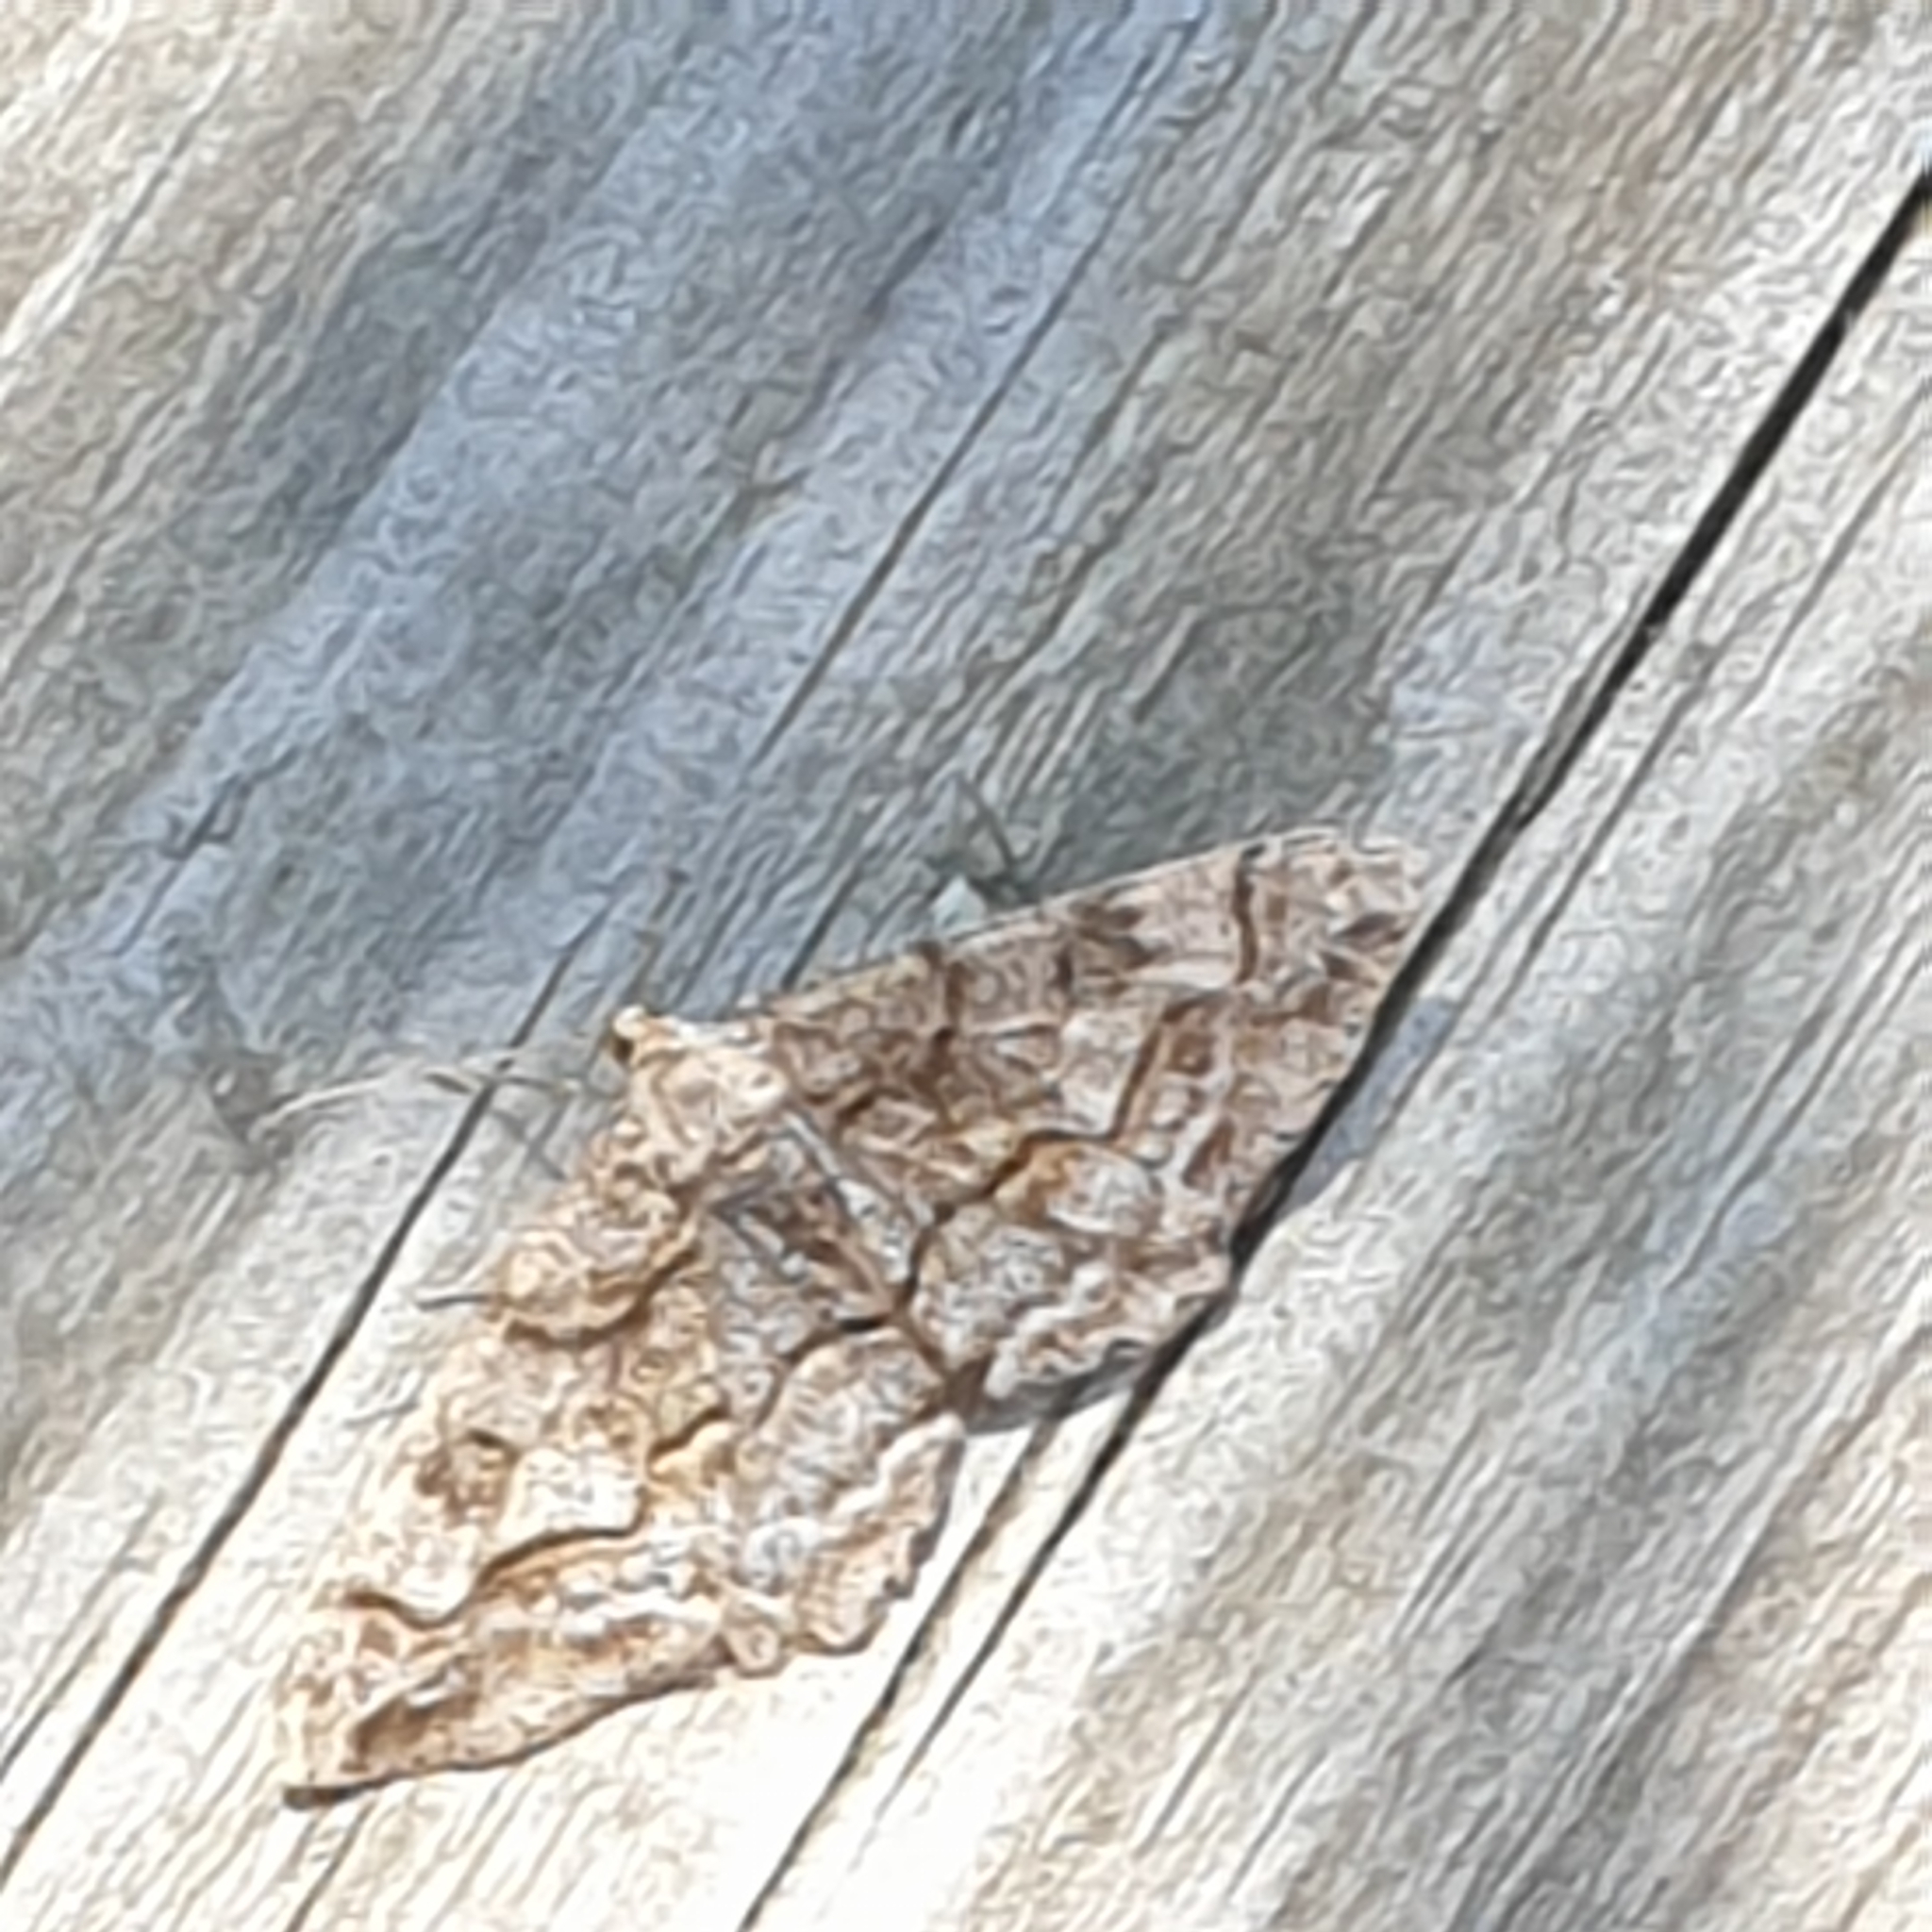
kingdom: Animalia
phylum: Arthropoda
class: Insecta
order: Lepidoptera
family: Geometridae
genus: Alcis
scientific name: Alcis repandata
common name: Mottled beauty
